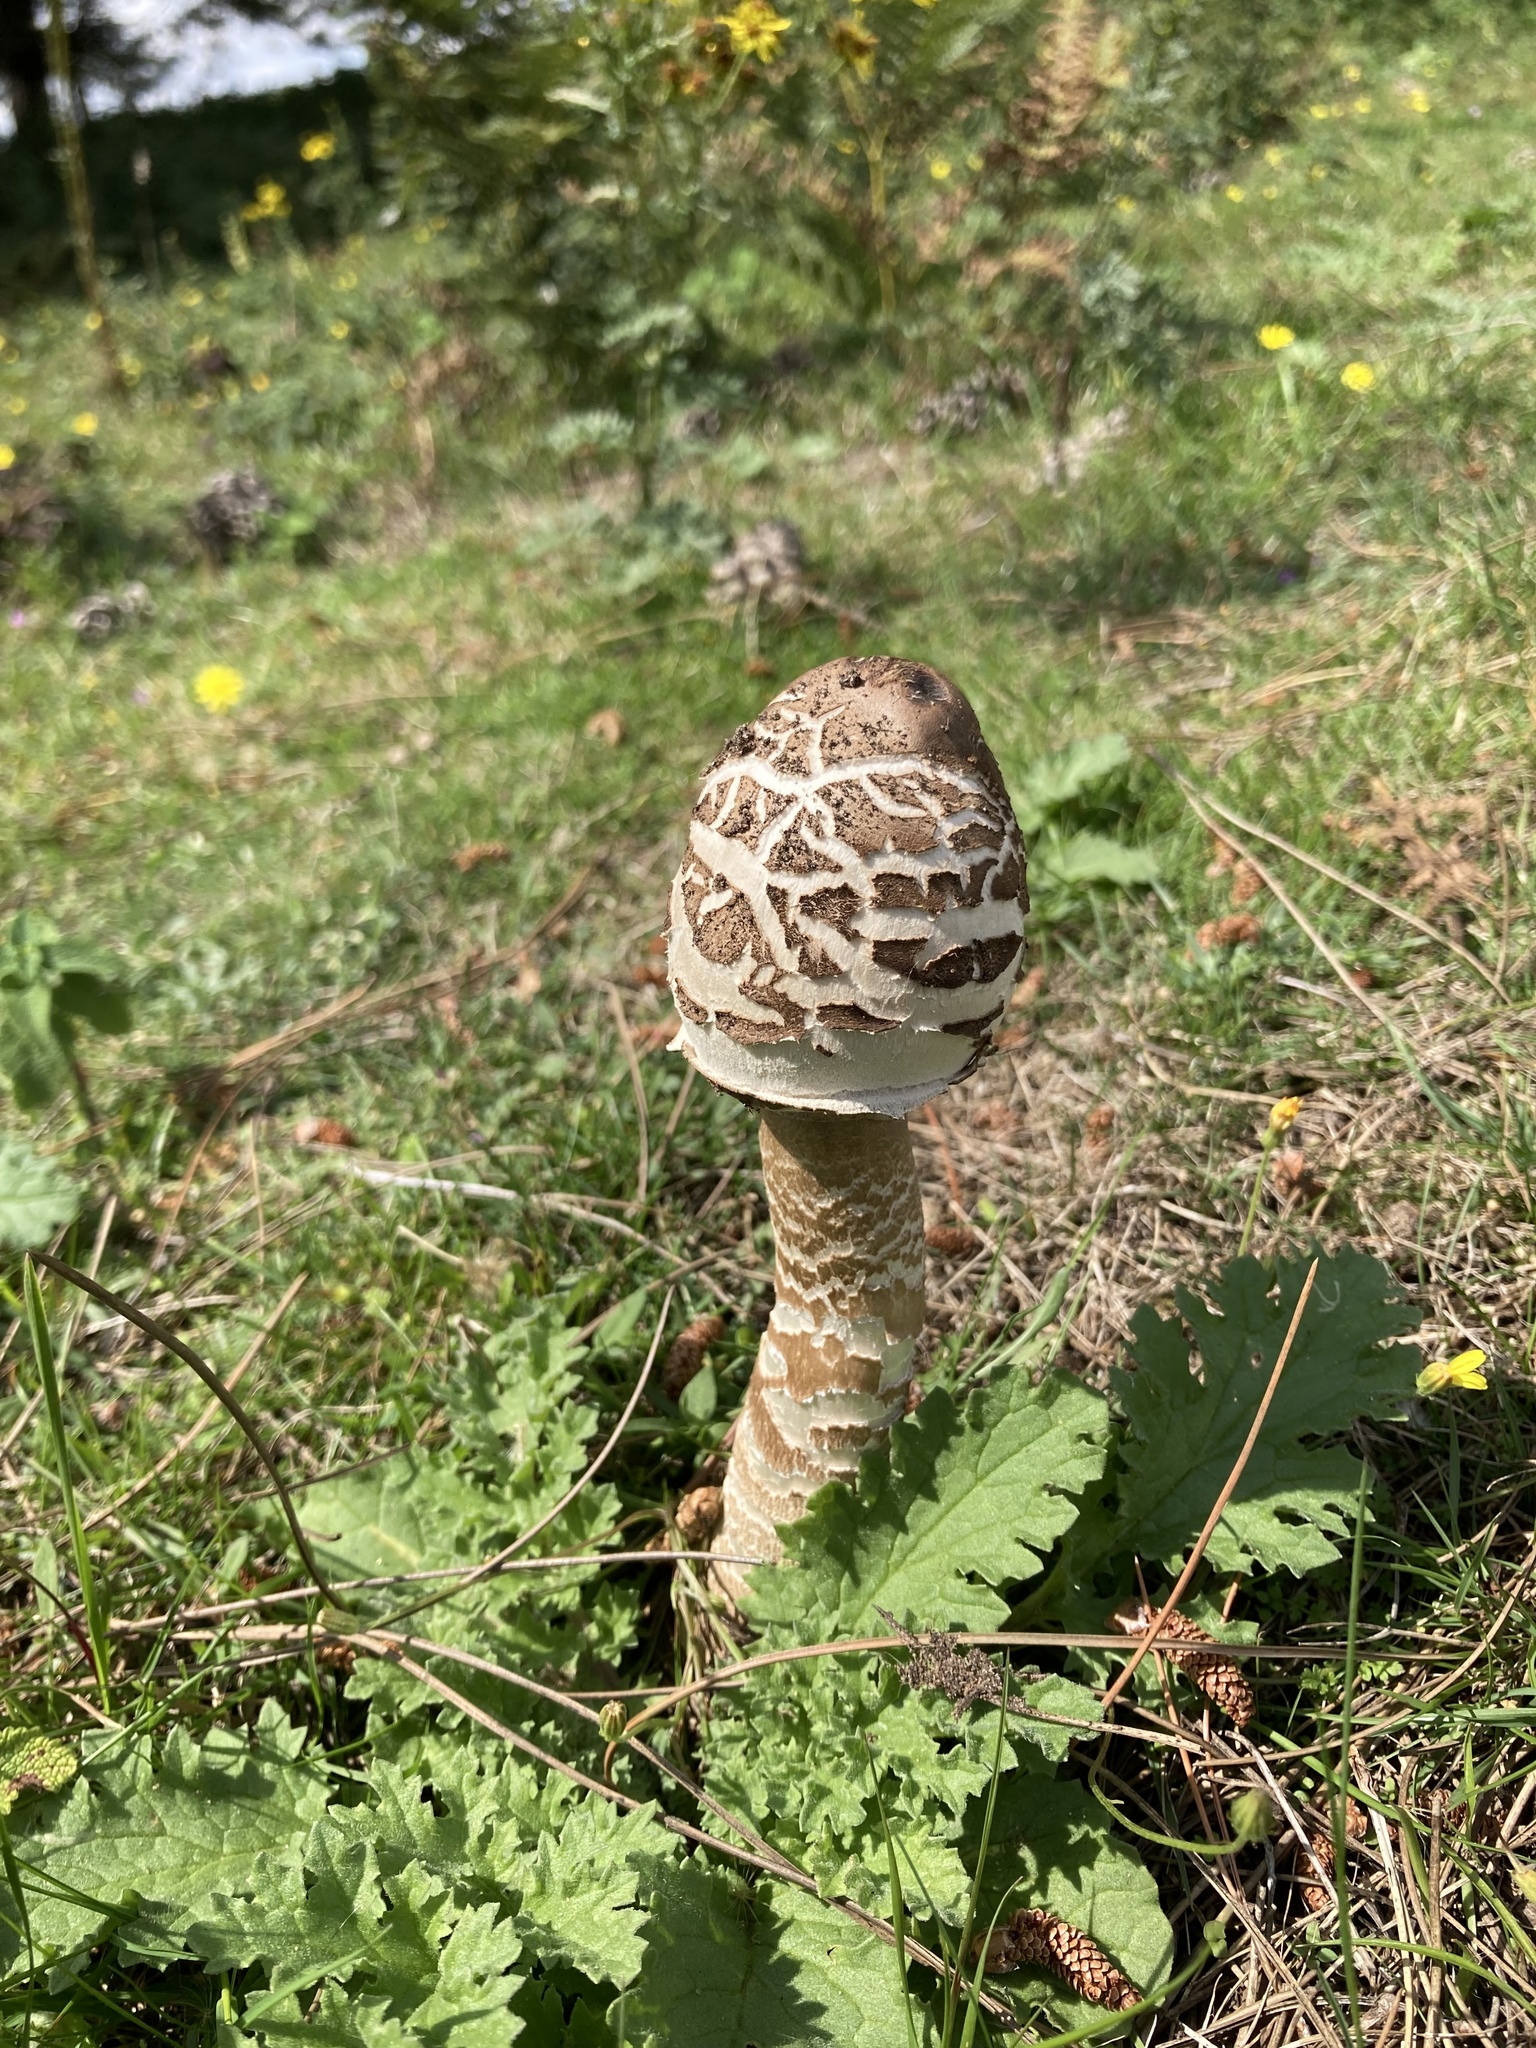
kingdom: Fungi
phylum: Basidiomycota
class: Agaricomycetes
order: Agaricales
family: Agaricaceae
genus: Macrolepiota
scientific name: Macrolepiota procera
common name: Parasol
